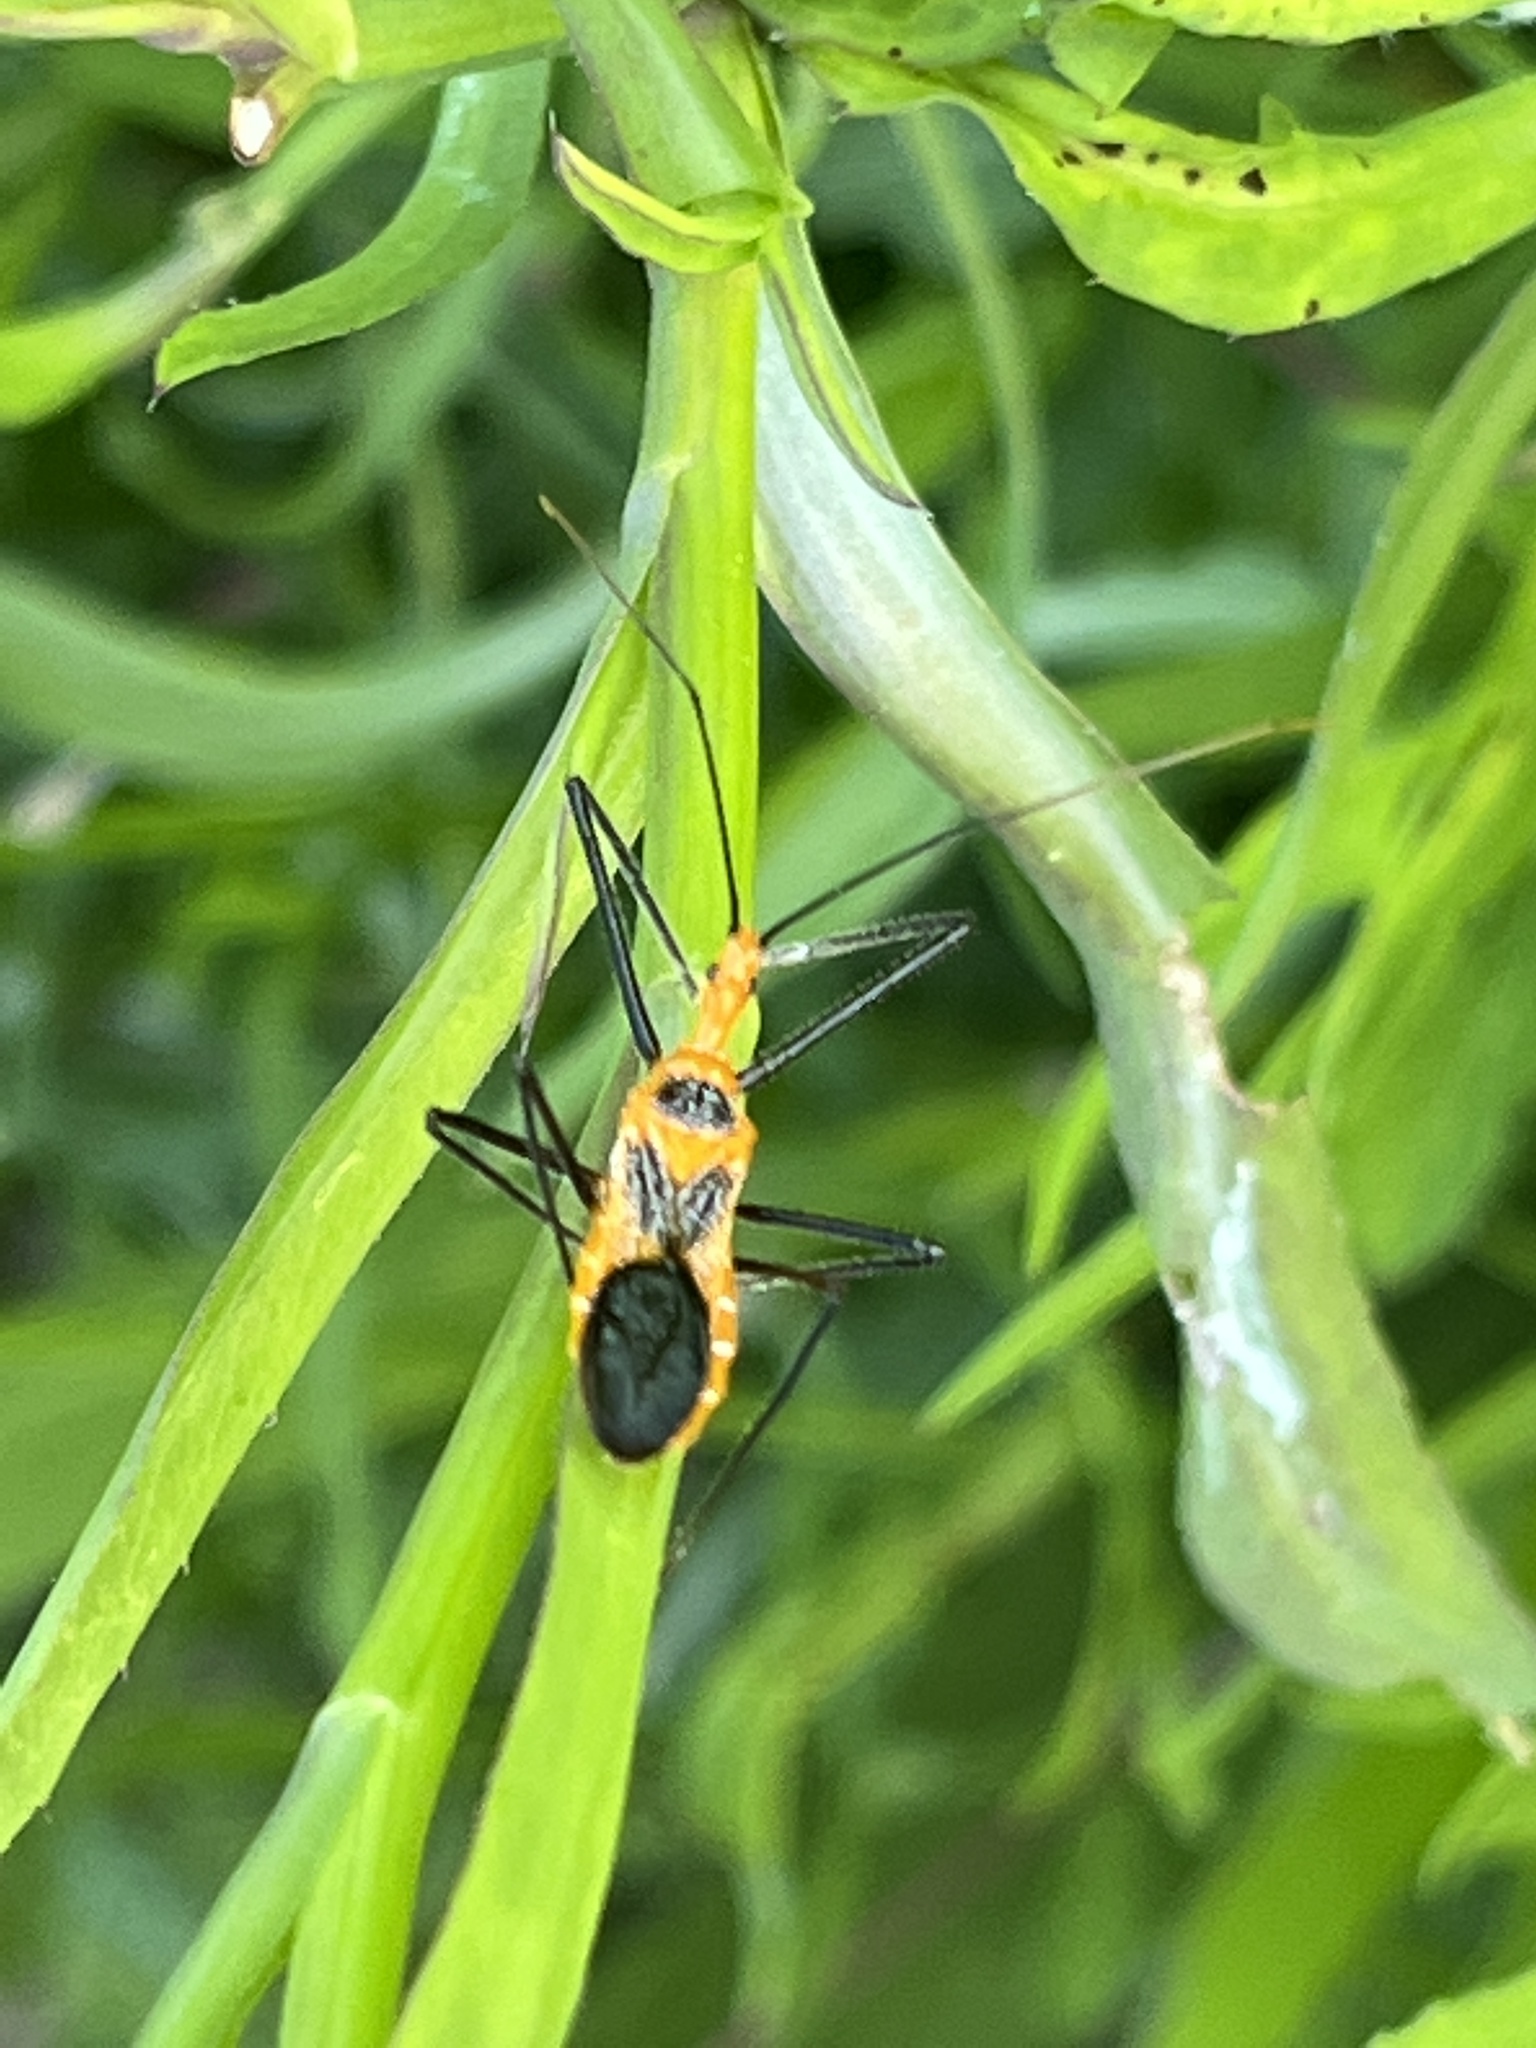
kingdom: Animalia
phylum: Arthropoda
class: Insecta
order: Hemiptera
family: Reduviidae
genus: Zelus
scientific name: Zelus longipes
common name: Milkweed assassin bug
